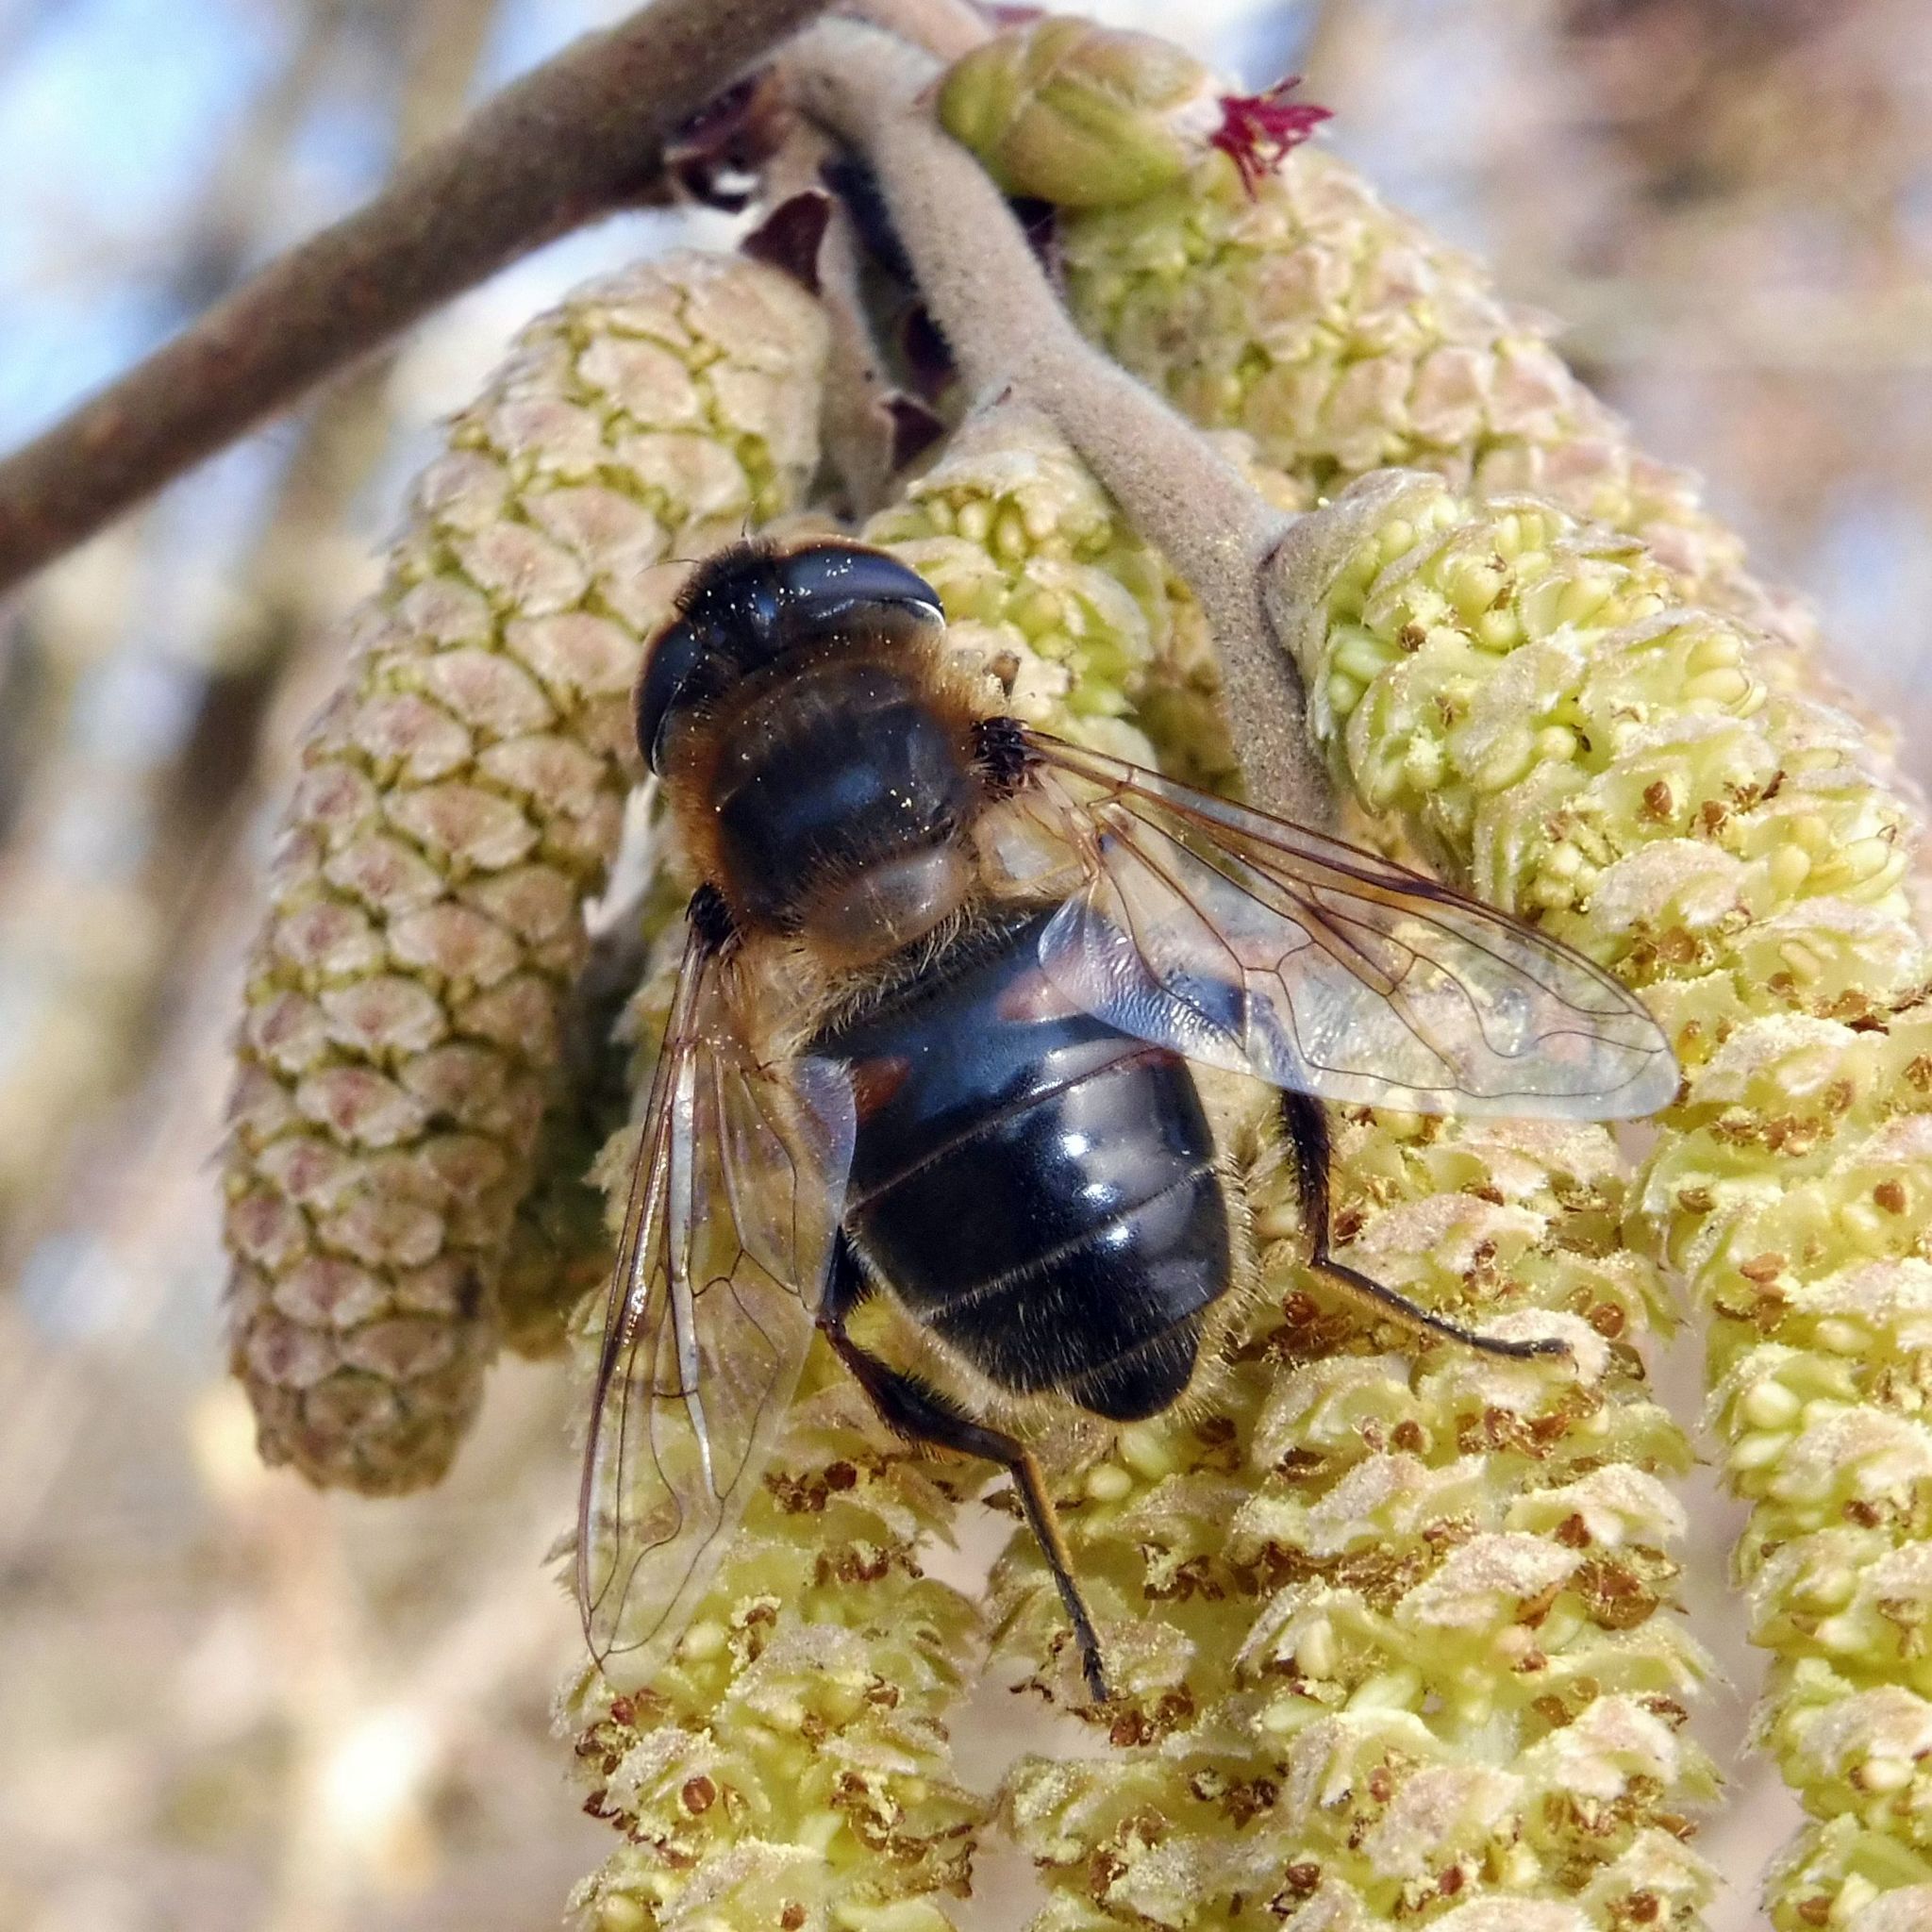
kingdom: Animalia
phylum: Arthropoda
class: Insecta
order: Diptera
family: Syrphidae
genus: Eristalis
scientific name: Eristalis tenax
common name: Drone fly
